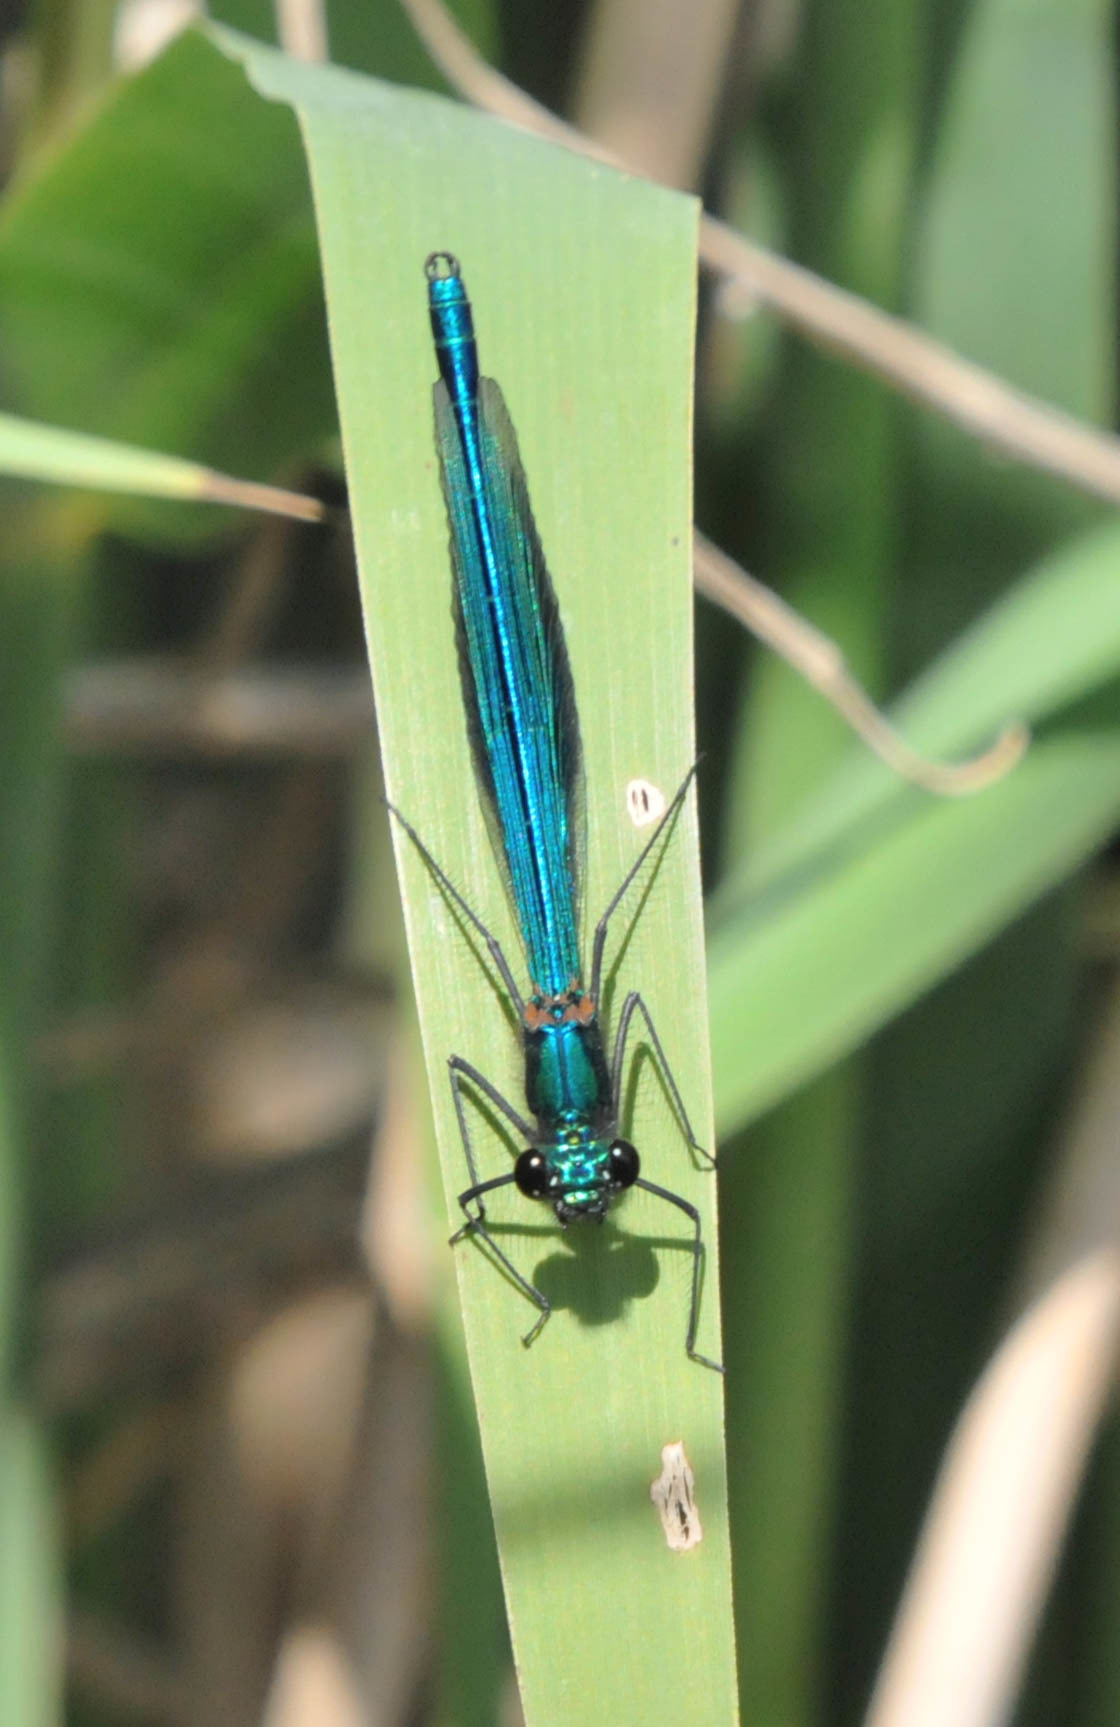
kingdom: Animalia
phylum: Arthropoda
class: Insecta
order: Odonata
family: Calopterygidae
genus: Calopteryx
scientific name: Calopteryx splendens
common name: Banded demoiselle
